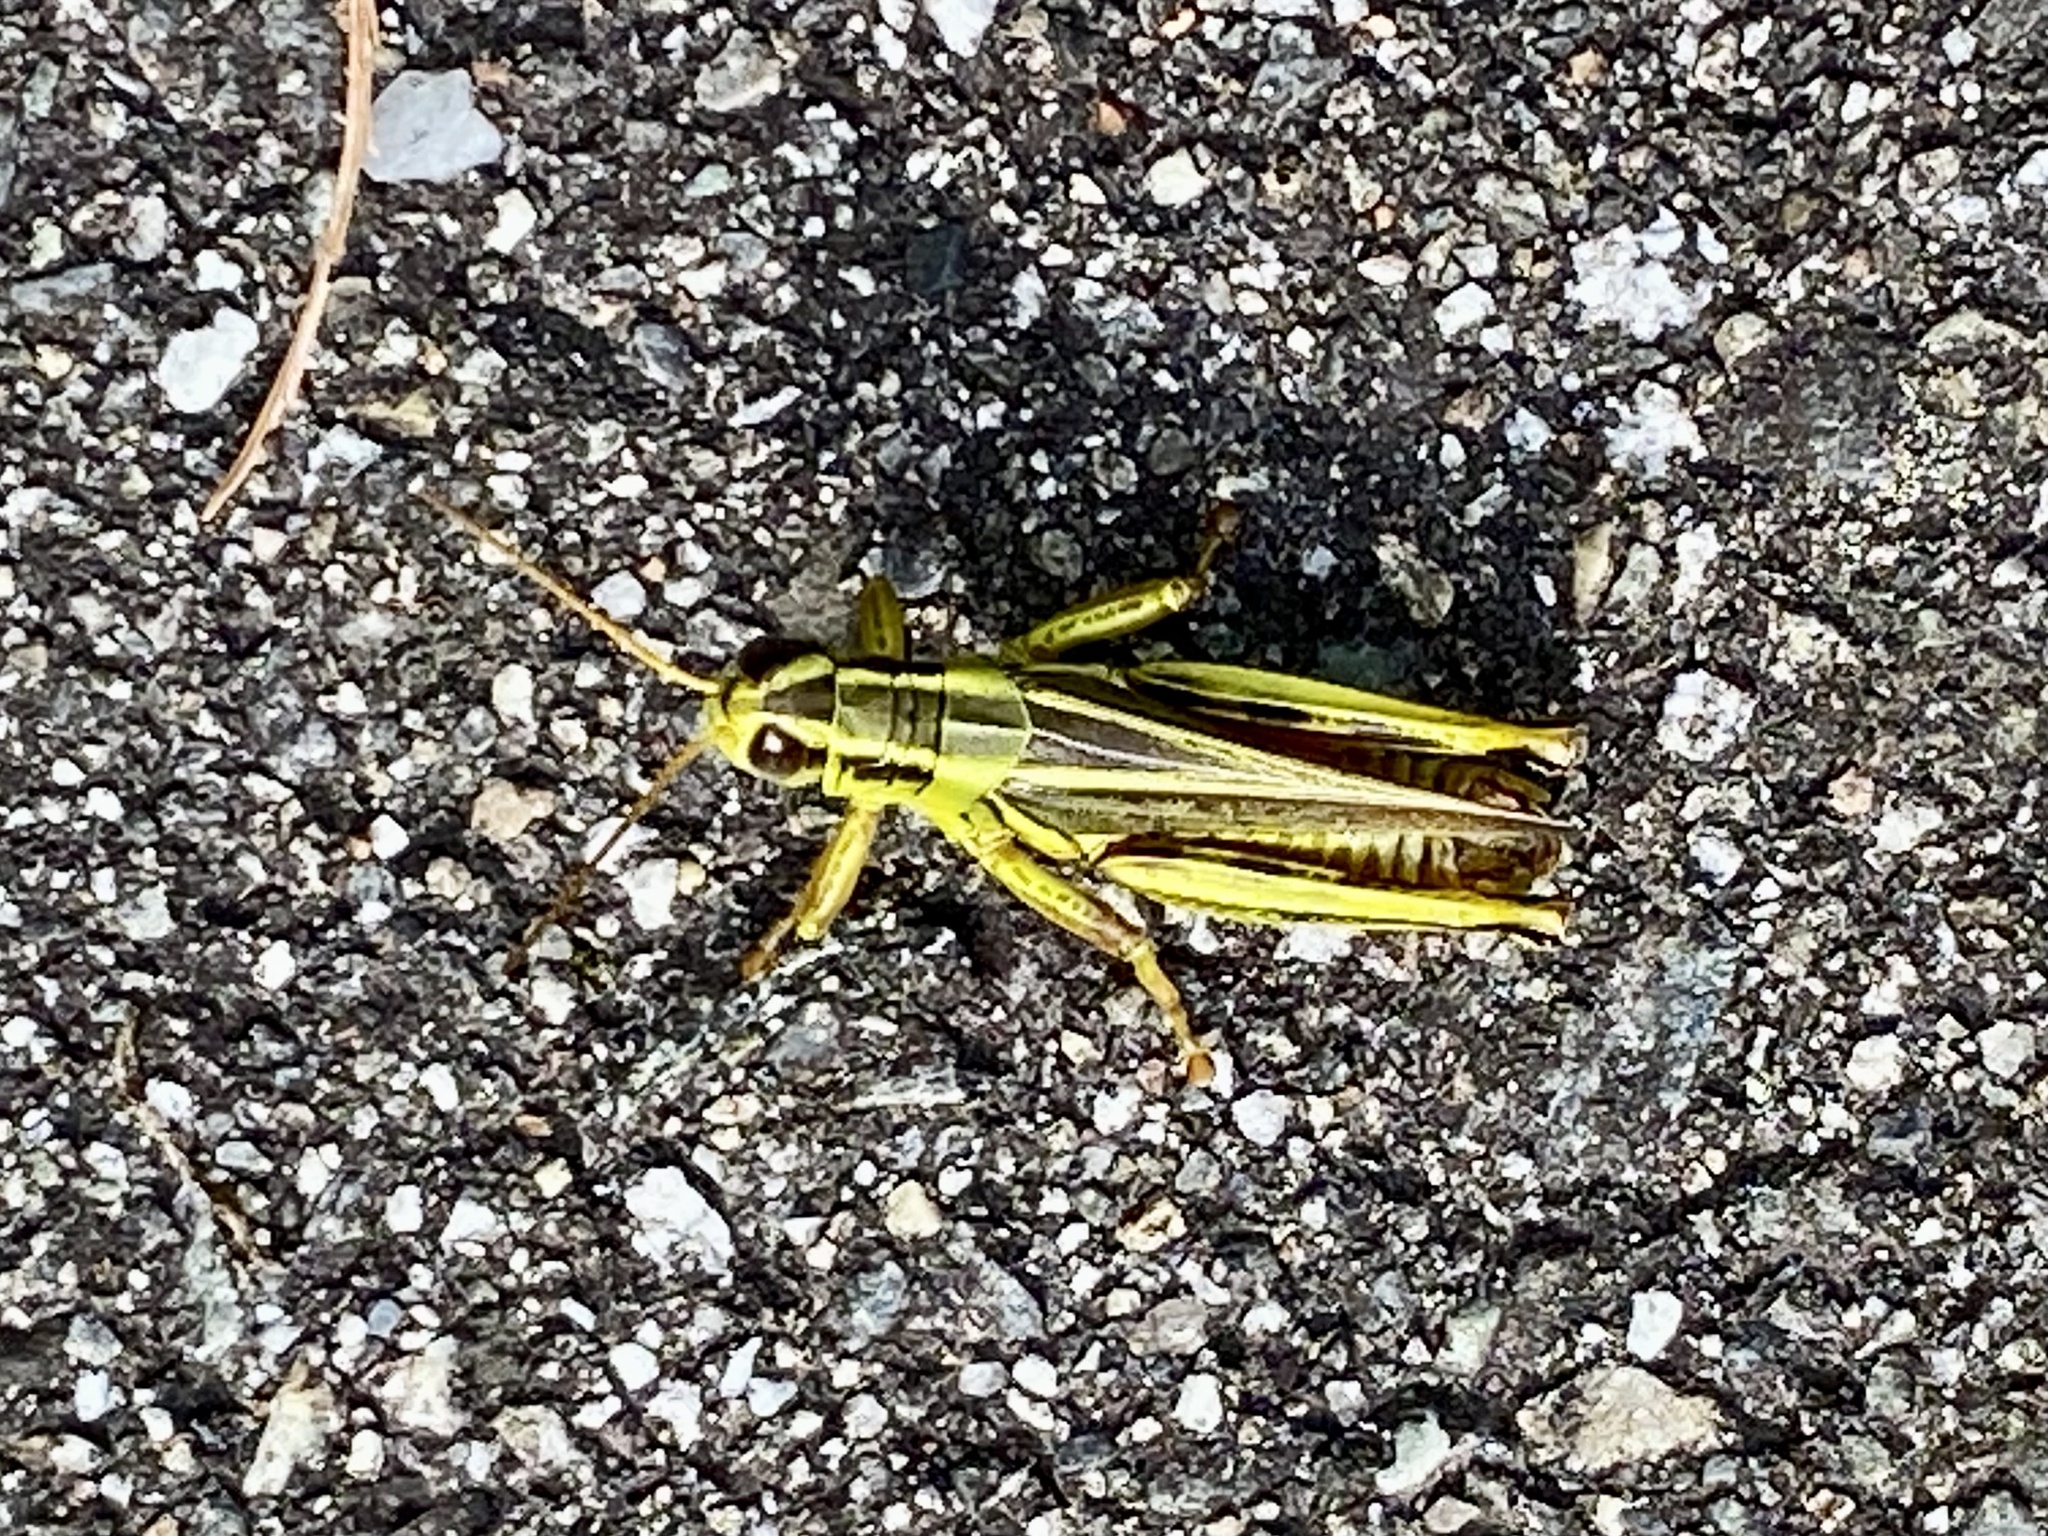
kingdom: Animalia
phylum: Arthropoda
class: Insecta
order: Orthoptera
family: Acrididae
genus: Melanoplus
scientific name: Melanoplus bivittatus
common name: Two-striped grasshopper
